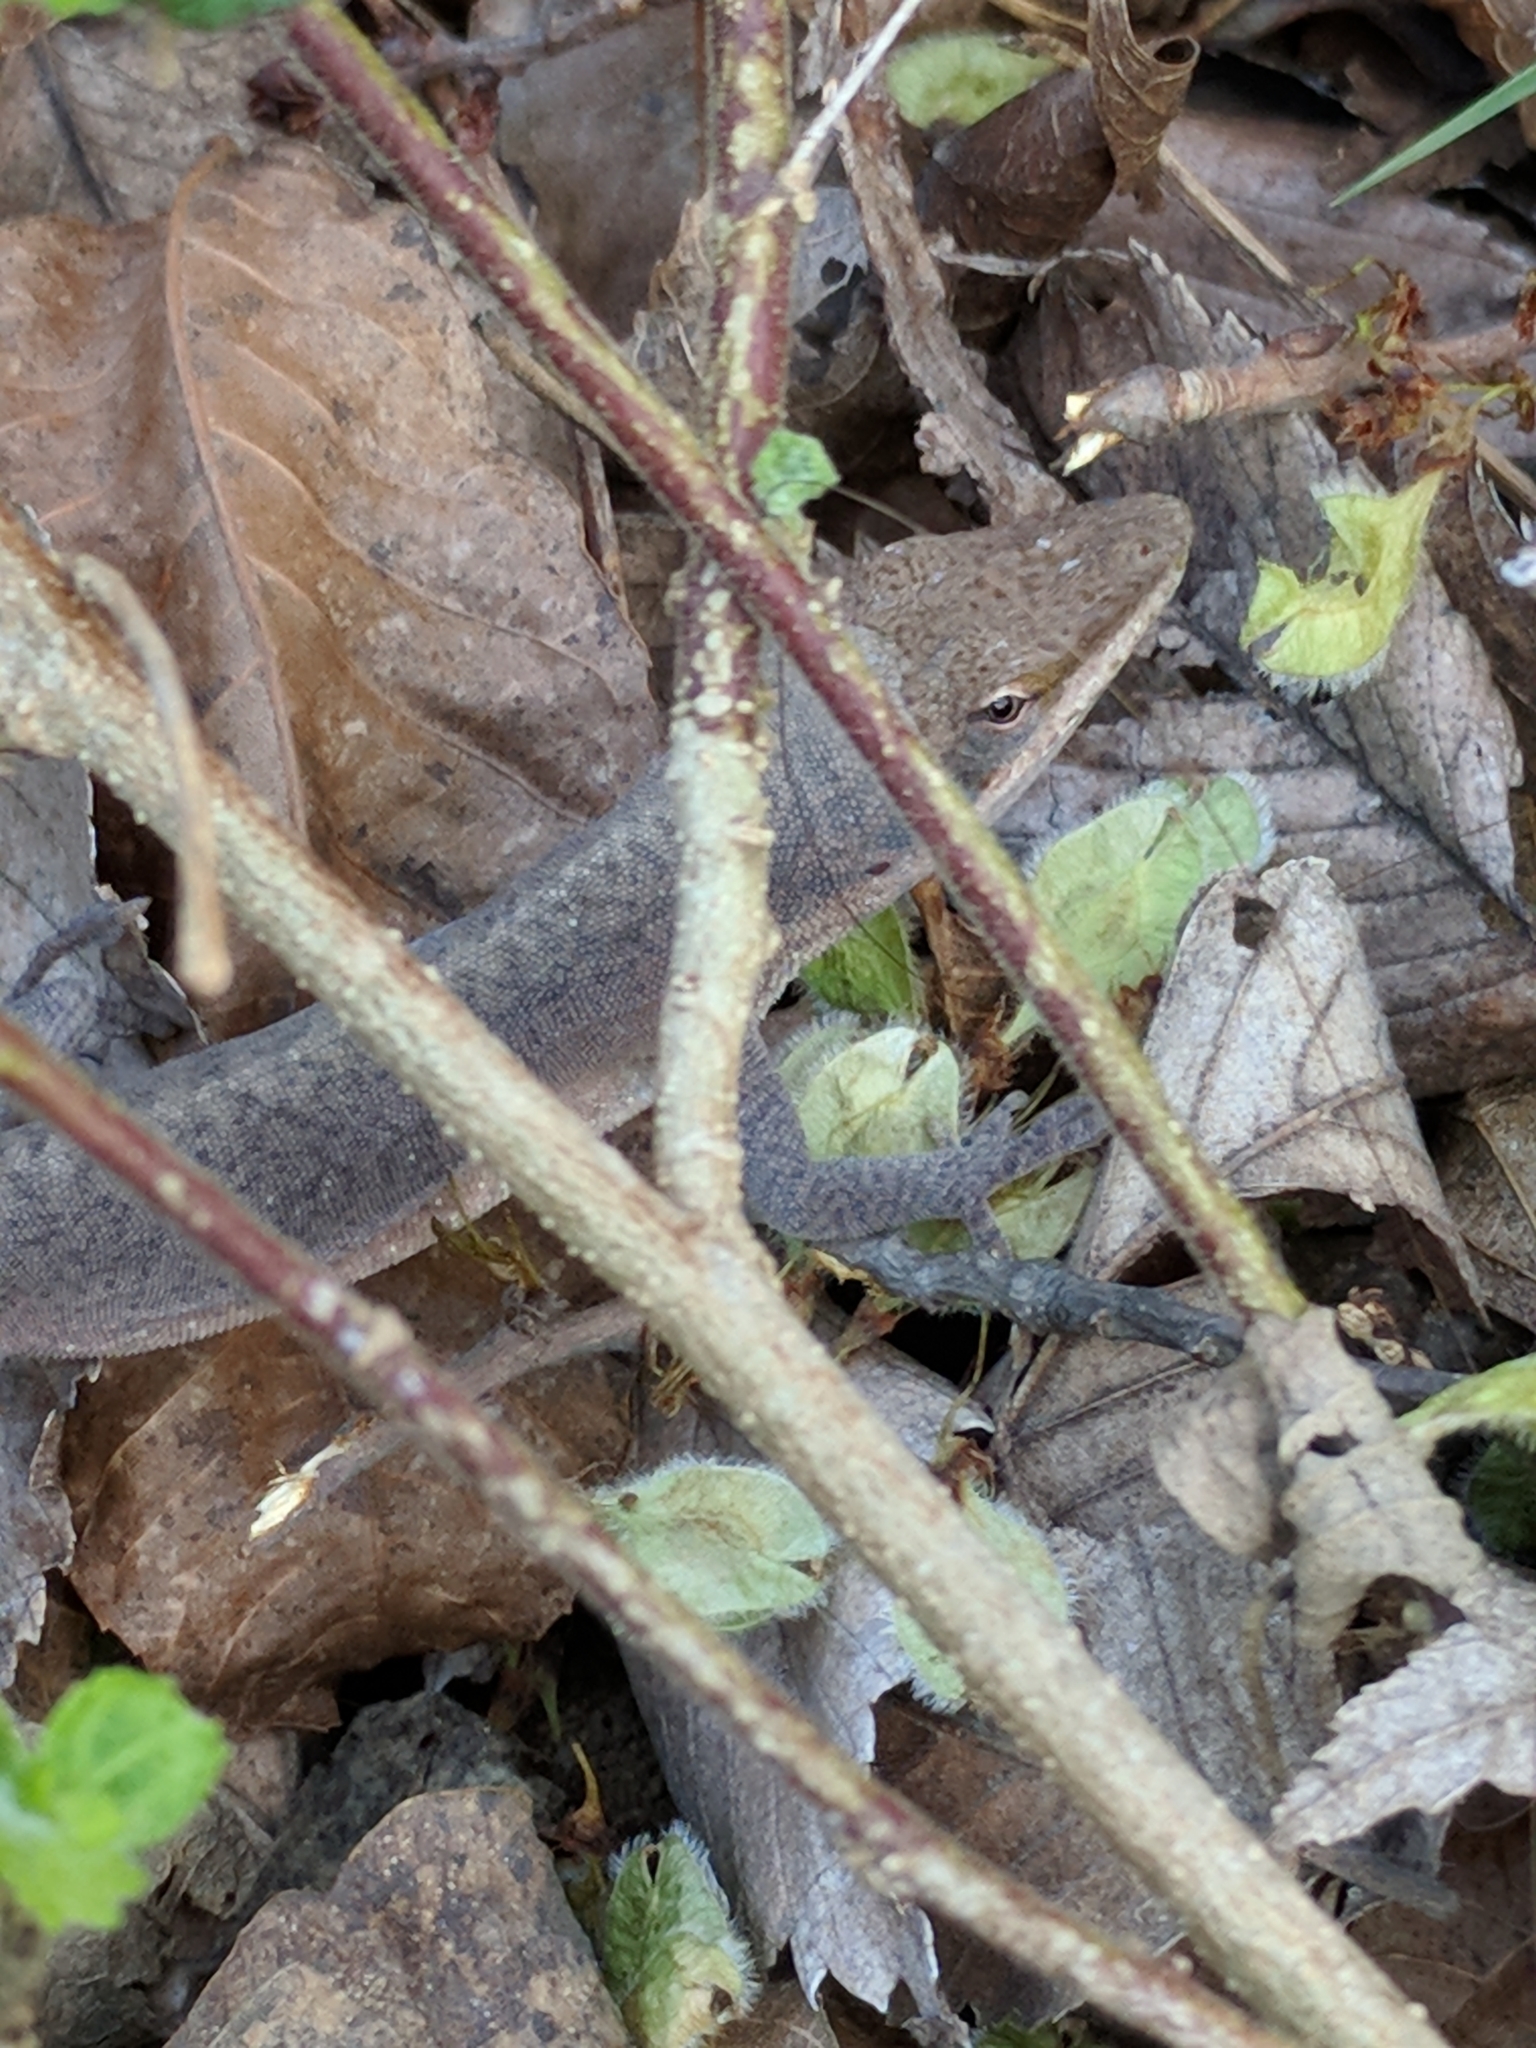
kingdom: Animalia
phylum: Chordata
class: Squamata
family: Dactyloidae
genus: Anolis
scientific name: Anolis carolinensis
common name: Green anole
